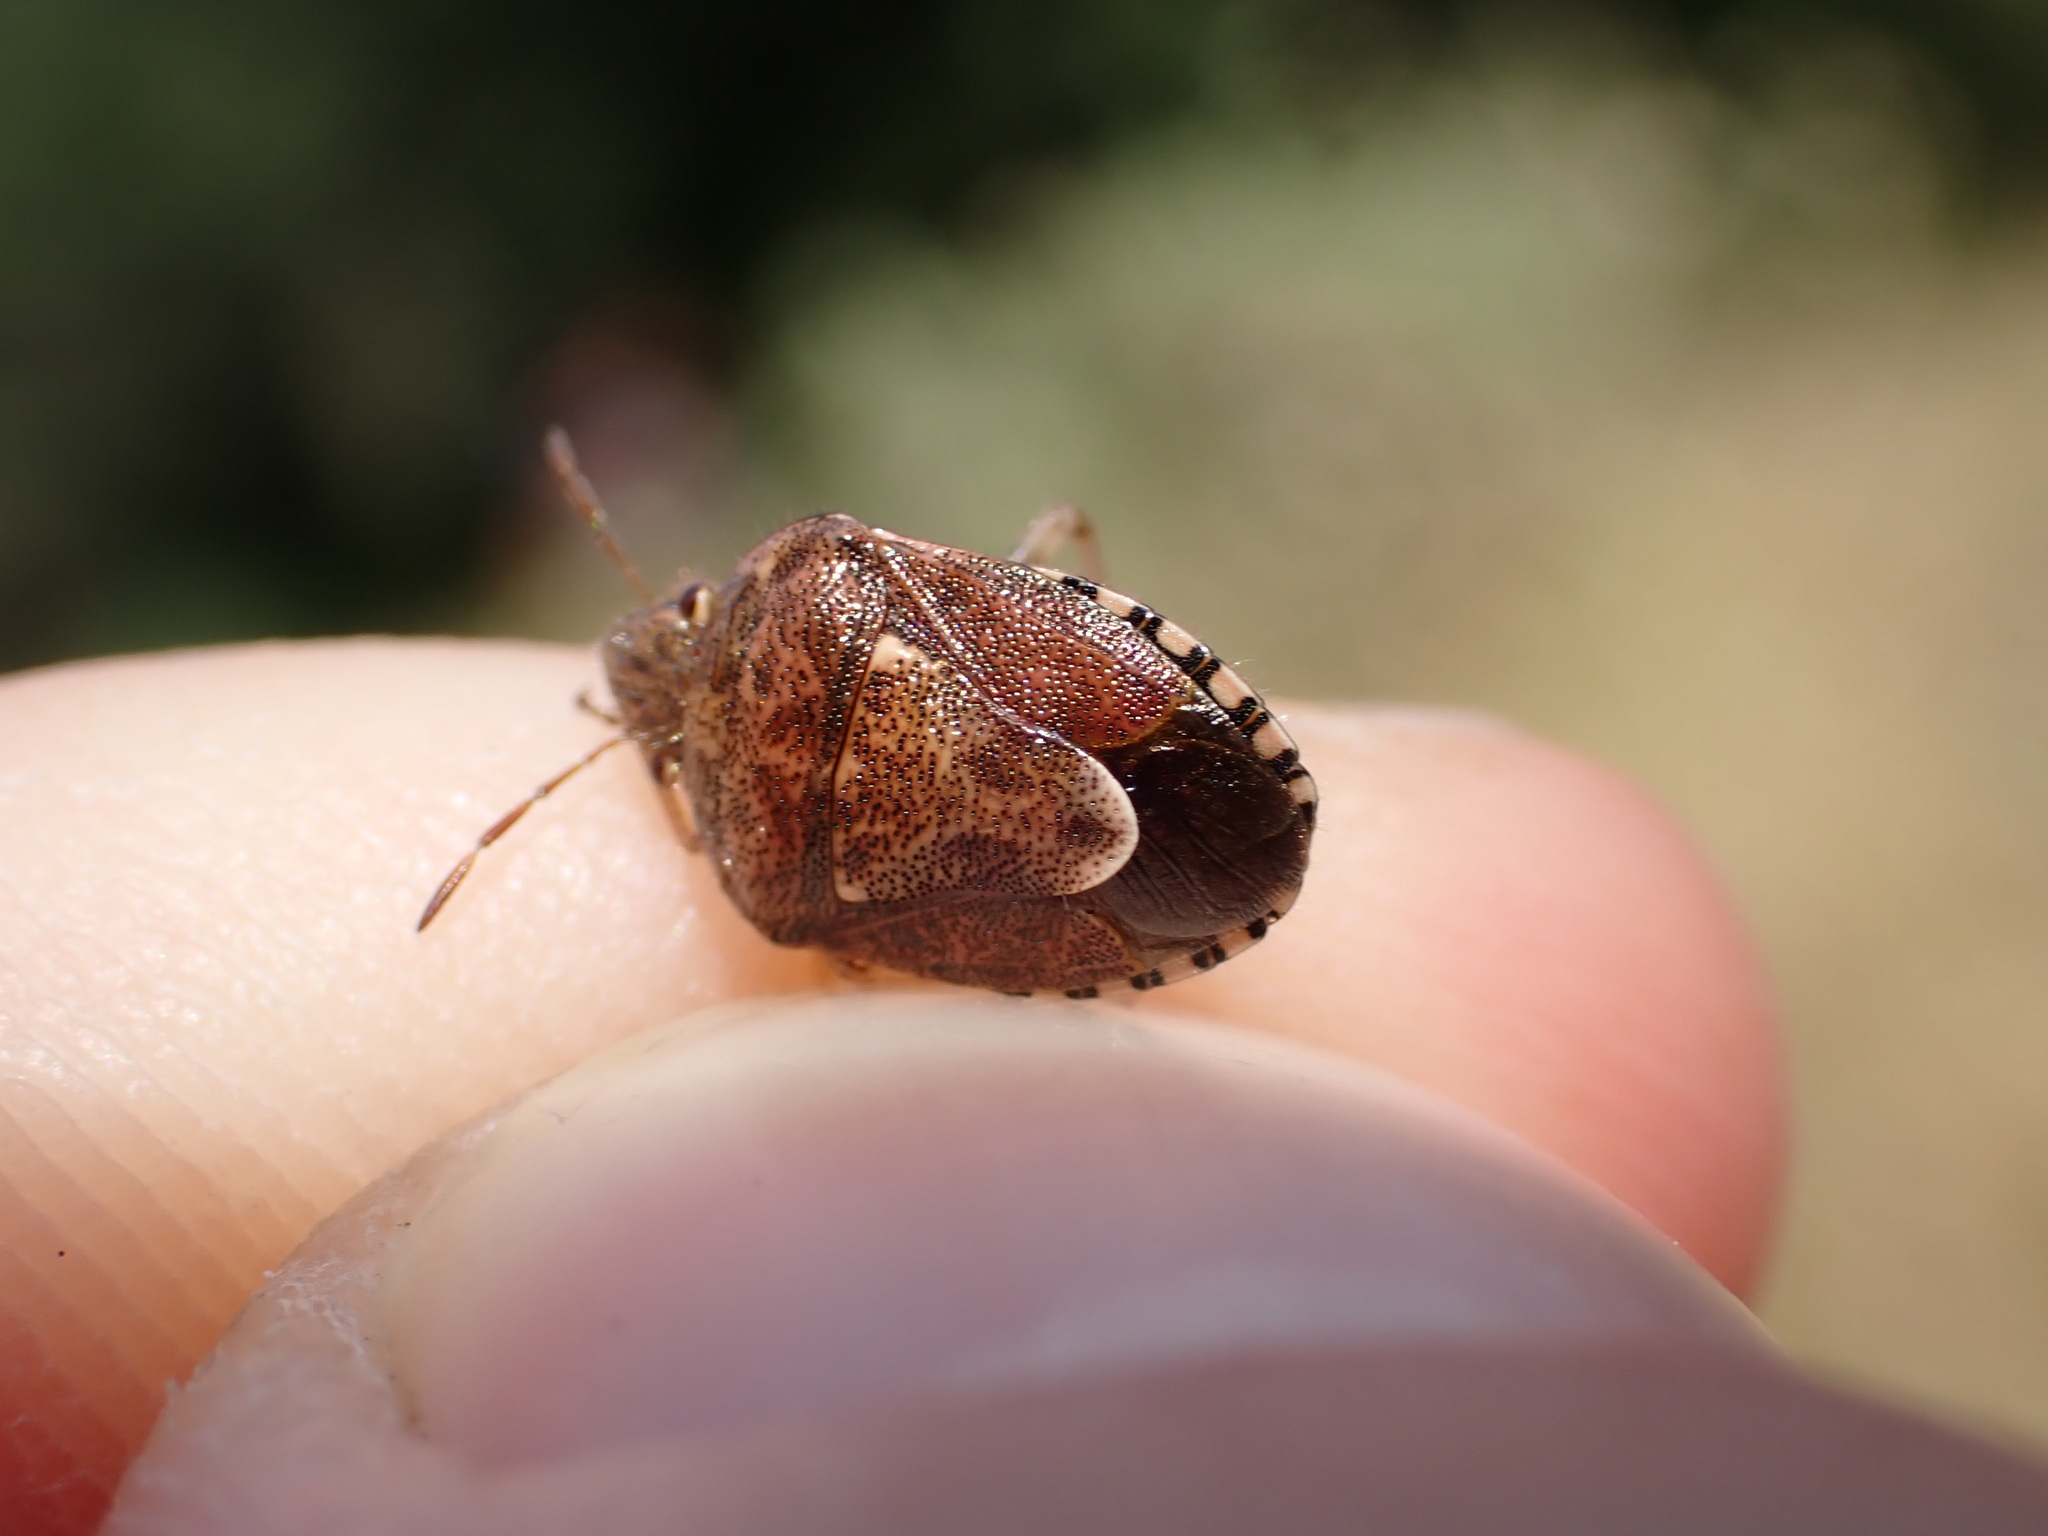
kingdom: Animalia
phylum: Arthropoda
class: Insecta
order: Hemiptera
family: Pentatomidae
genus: Staria
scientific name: Staria lunata
